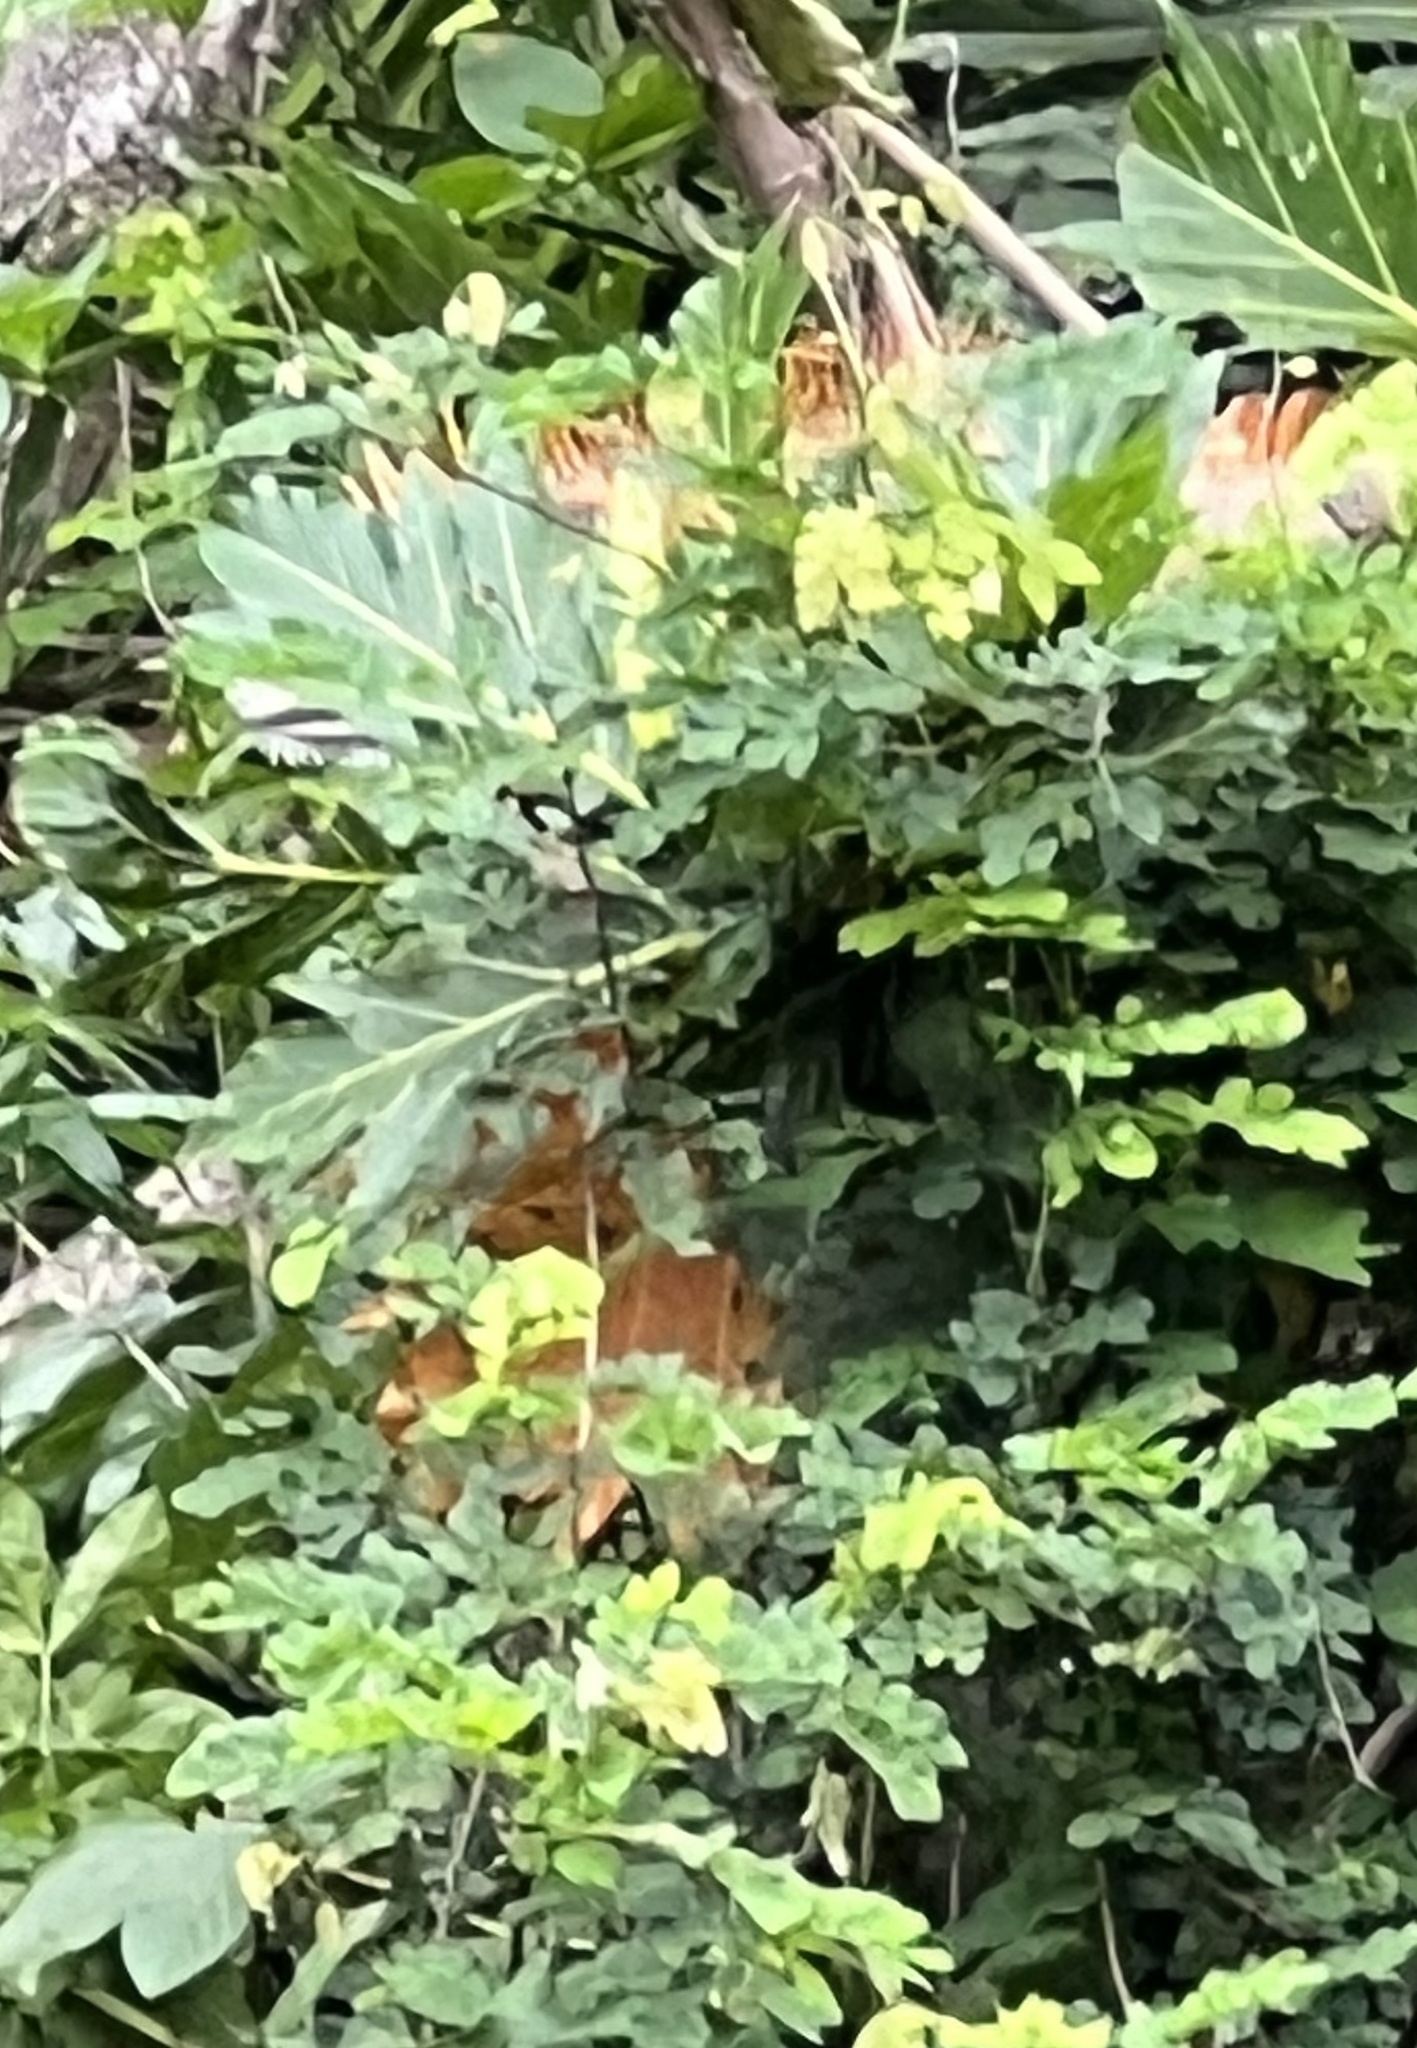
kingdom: Animalia
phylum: Chordata
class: Squamata
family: Iguanidae
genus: Iguana
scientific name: Iguana iguana
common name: Green iguana
